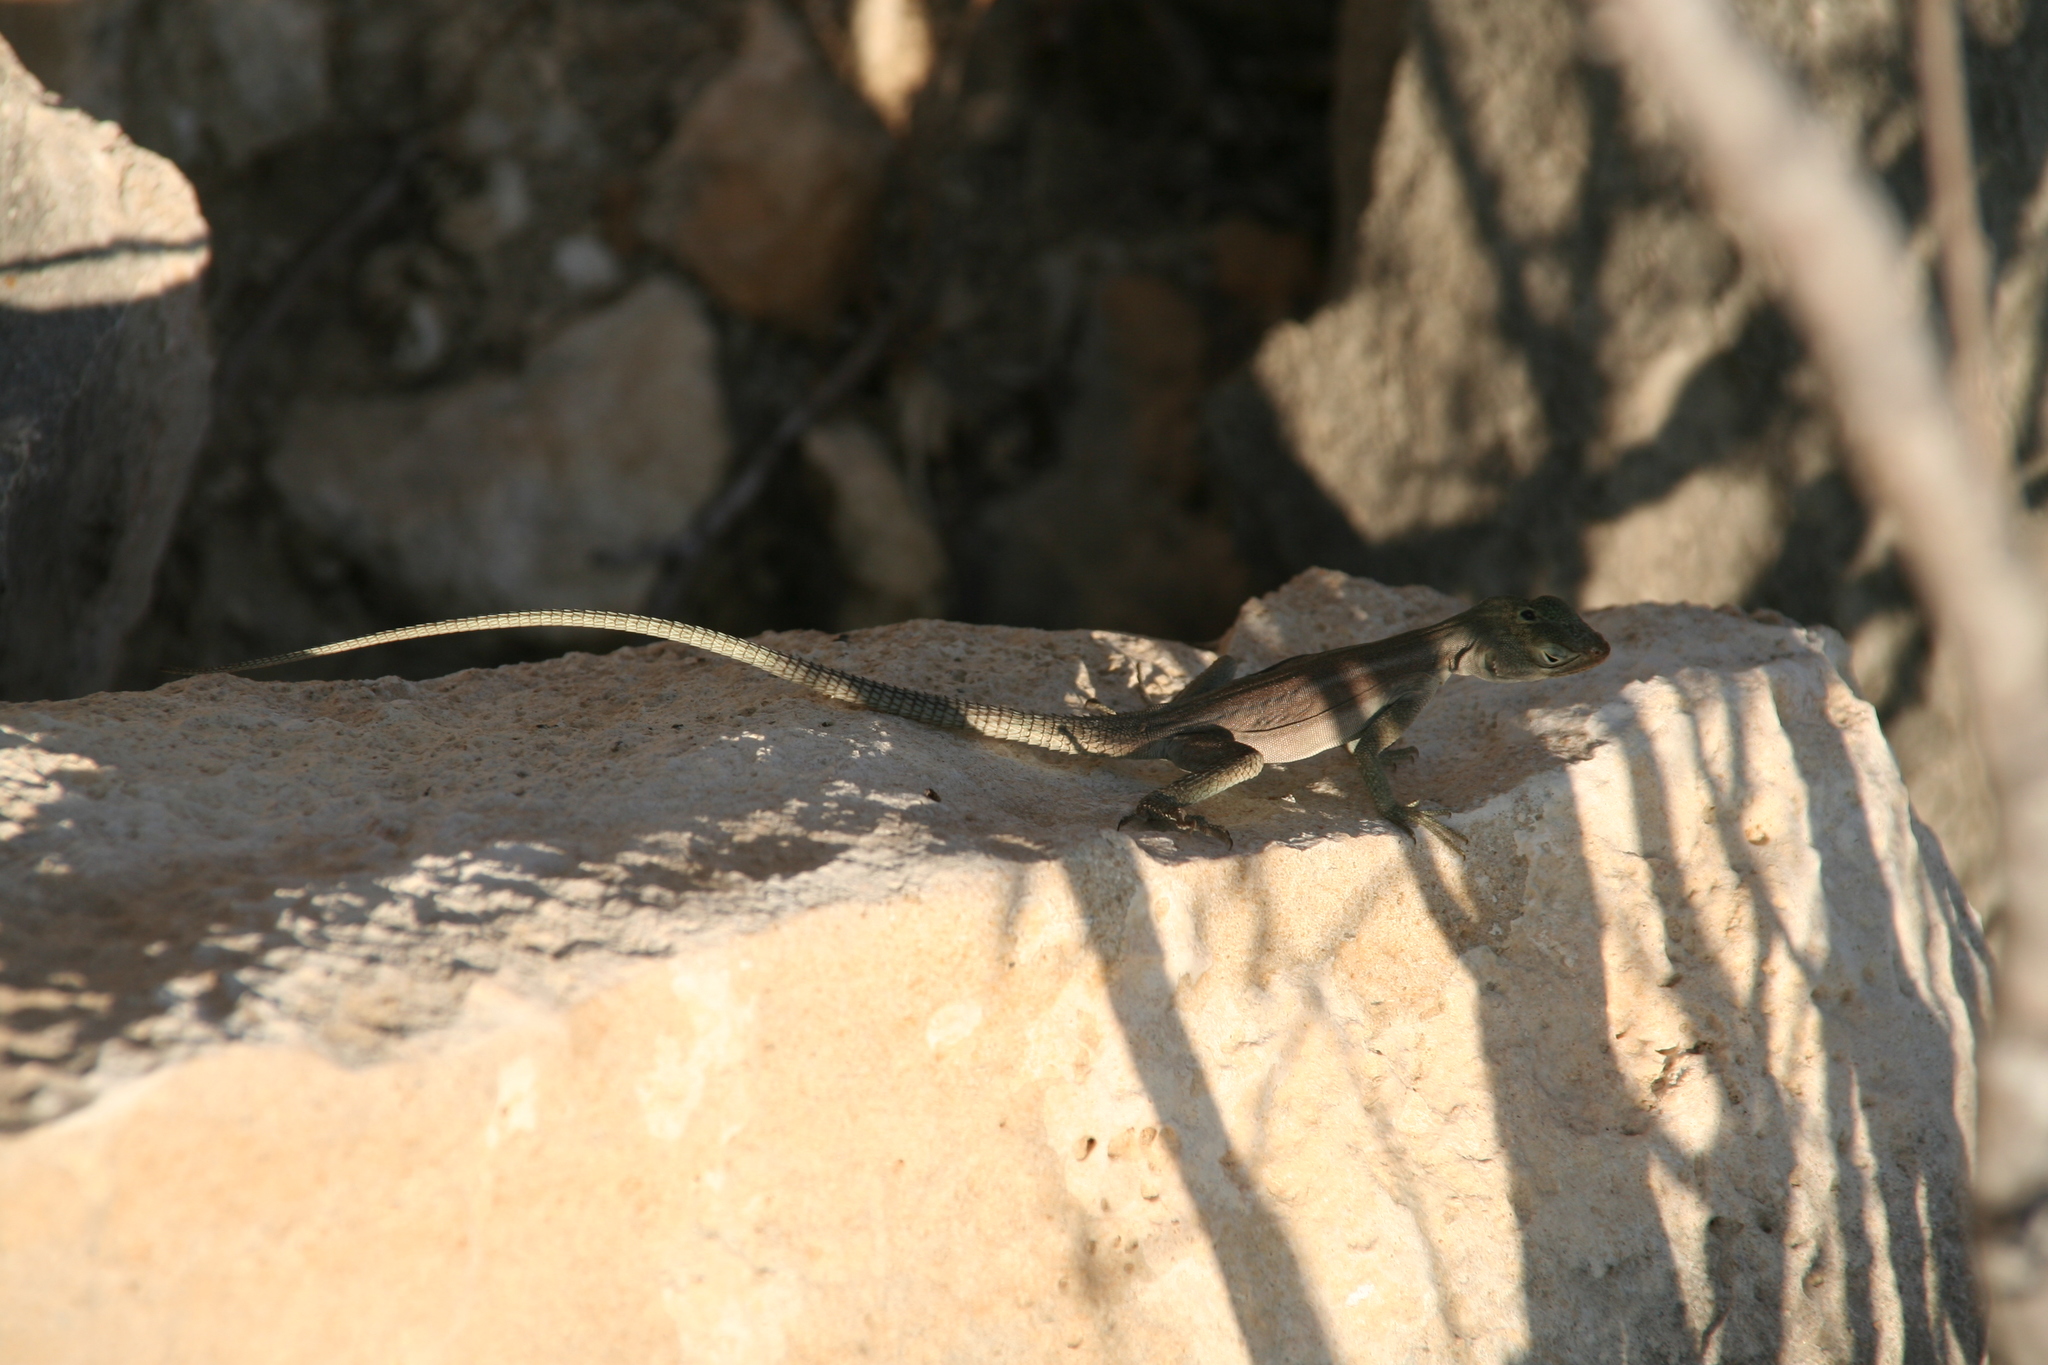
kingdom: Animalia
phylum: Chordata
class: Squamata
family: Opluridae
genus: Oplurus
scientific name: Oplurus fierinensis
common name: Anzamala madagascar swift
